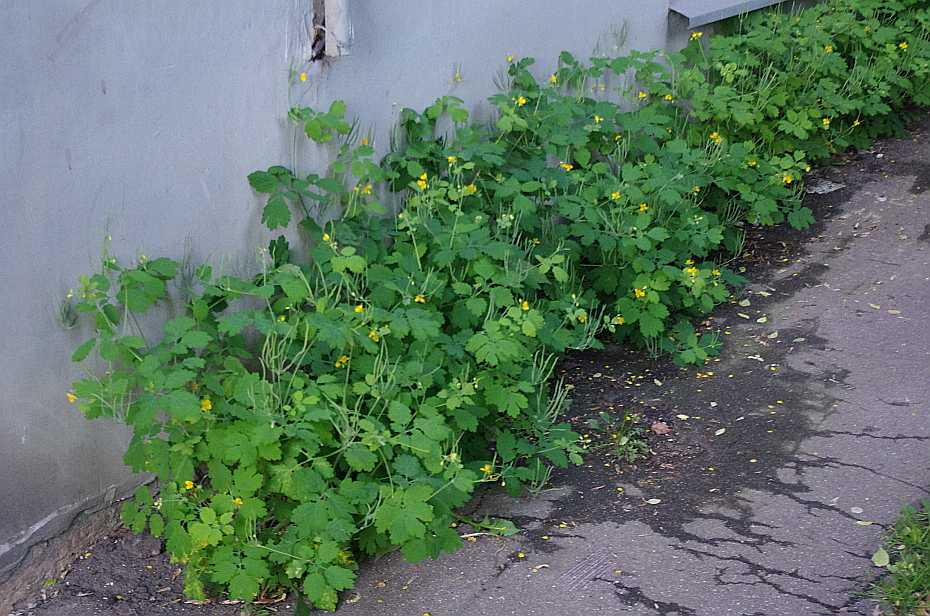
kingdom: Plantae
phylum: Tracheophyta
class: Magnoliopsida
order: Ranunculales
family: Papaveraceae
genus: Chelidonium
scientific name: Chelidonium majus
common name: Greater celandine
